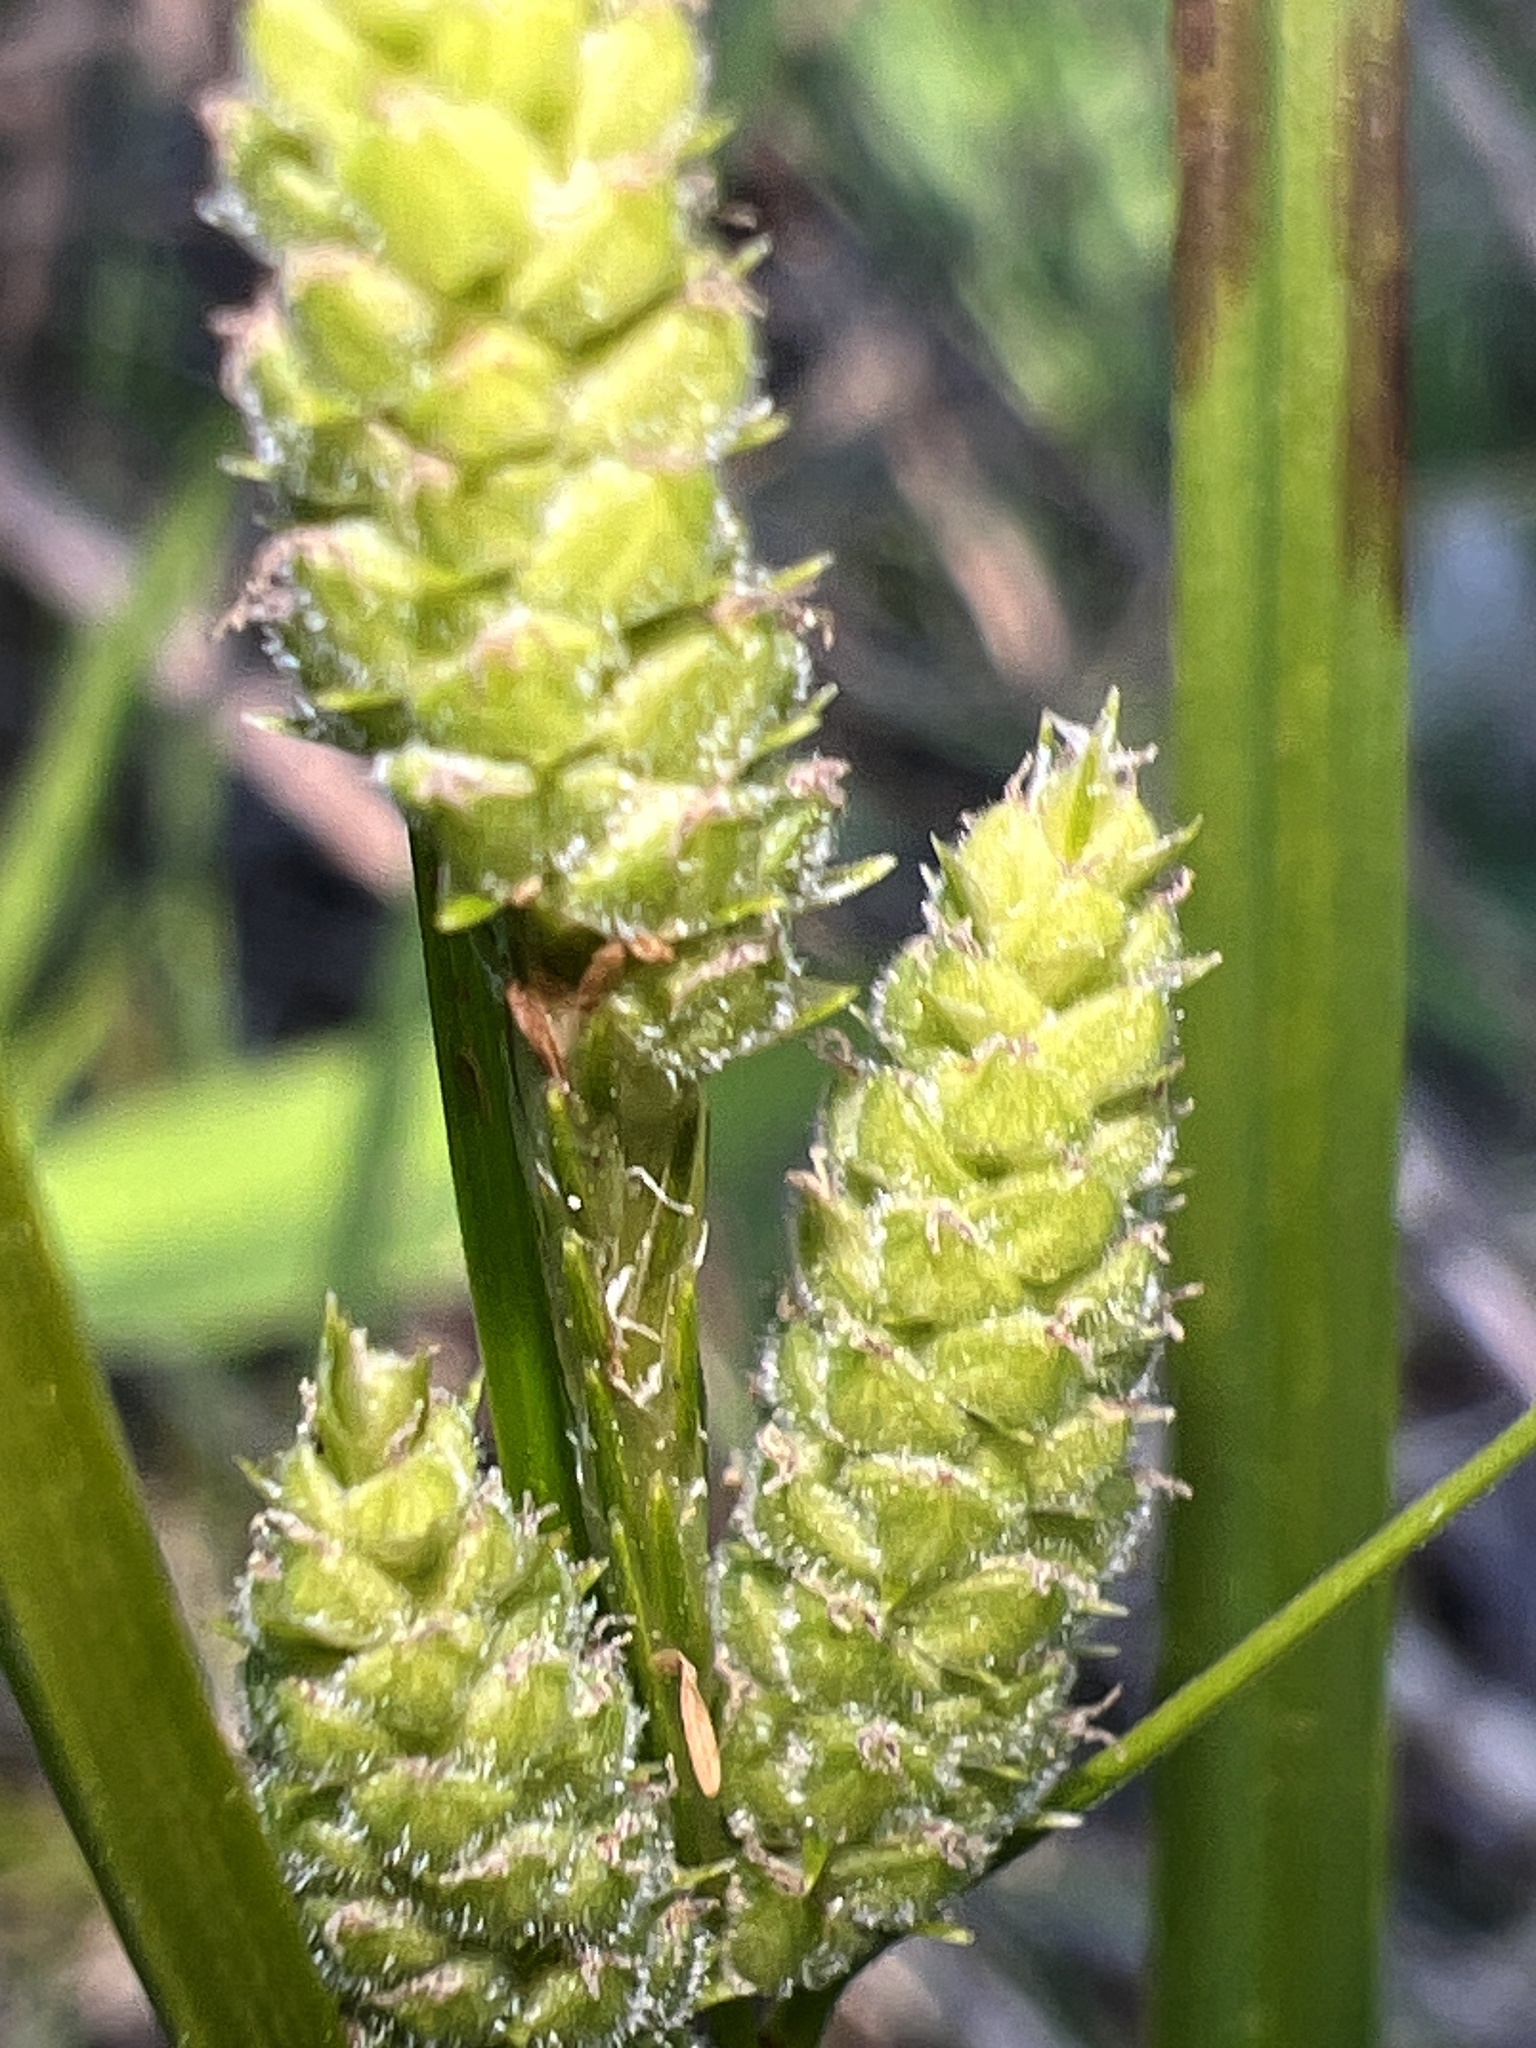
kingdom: Plantae
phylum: Tracheophyta
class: Liliopsida
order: Poales
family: Cyperaceae
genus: Carex
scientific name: Carex swanii
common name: Downy green sedge
